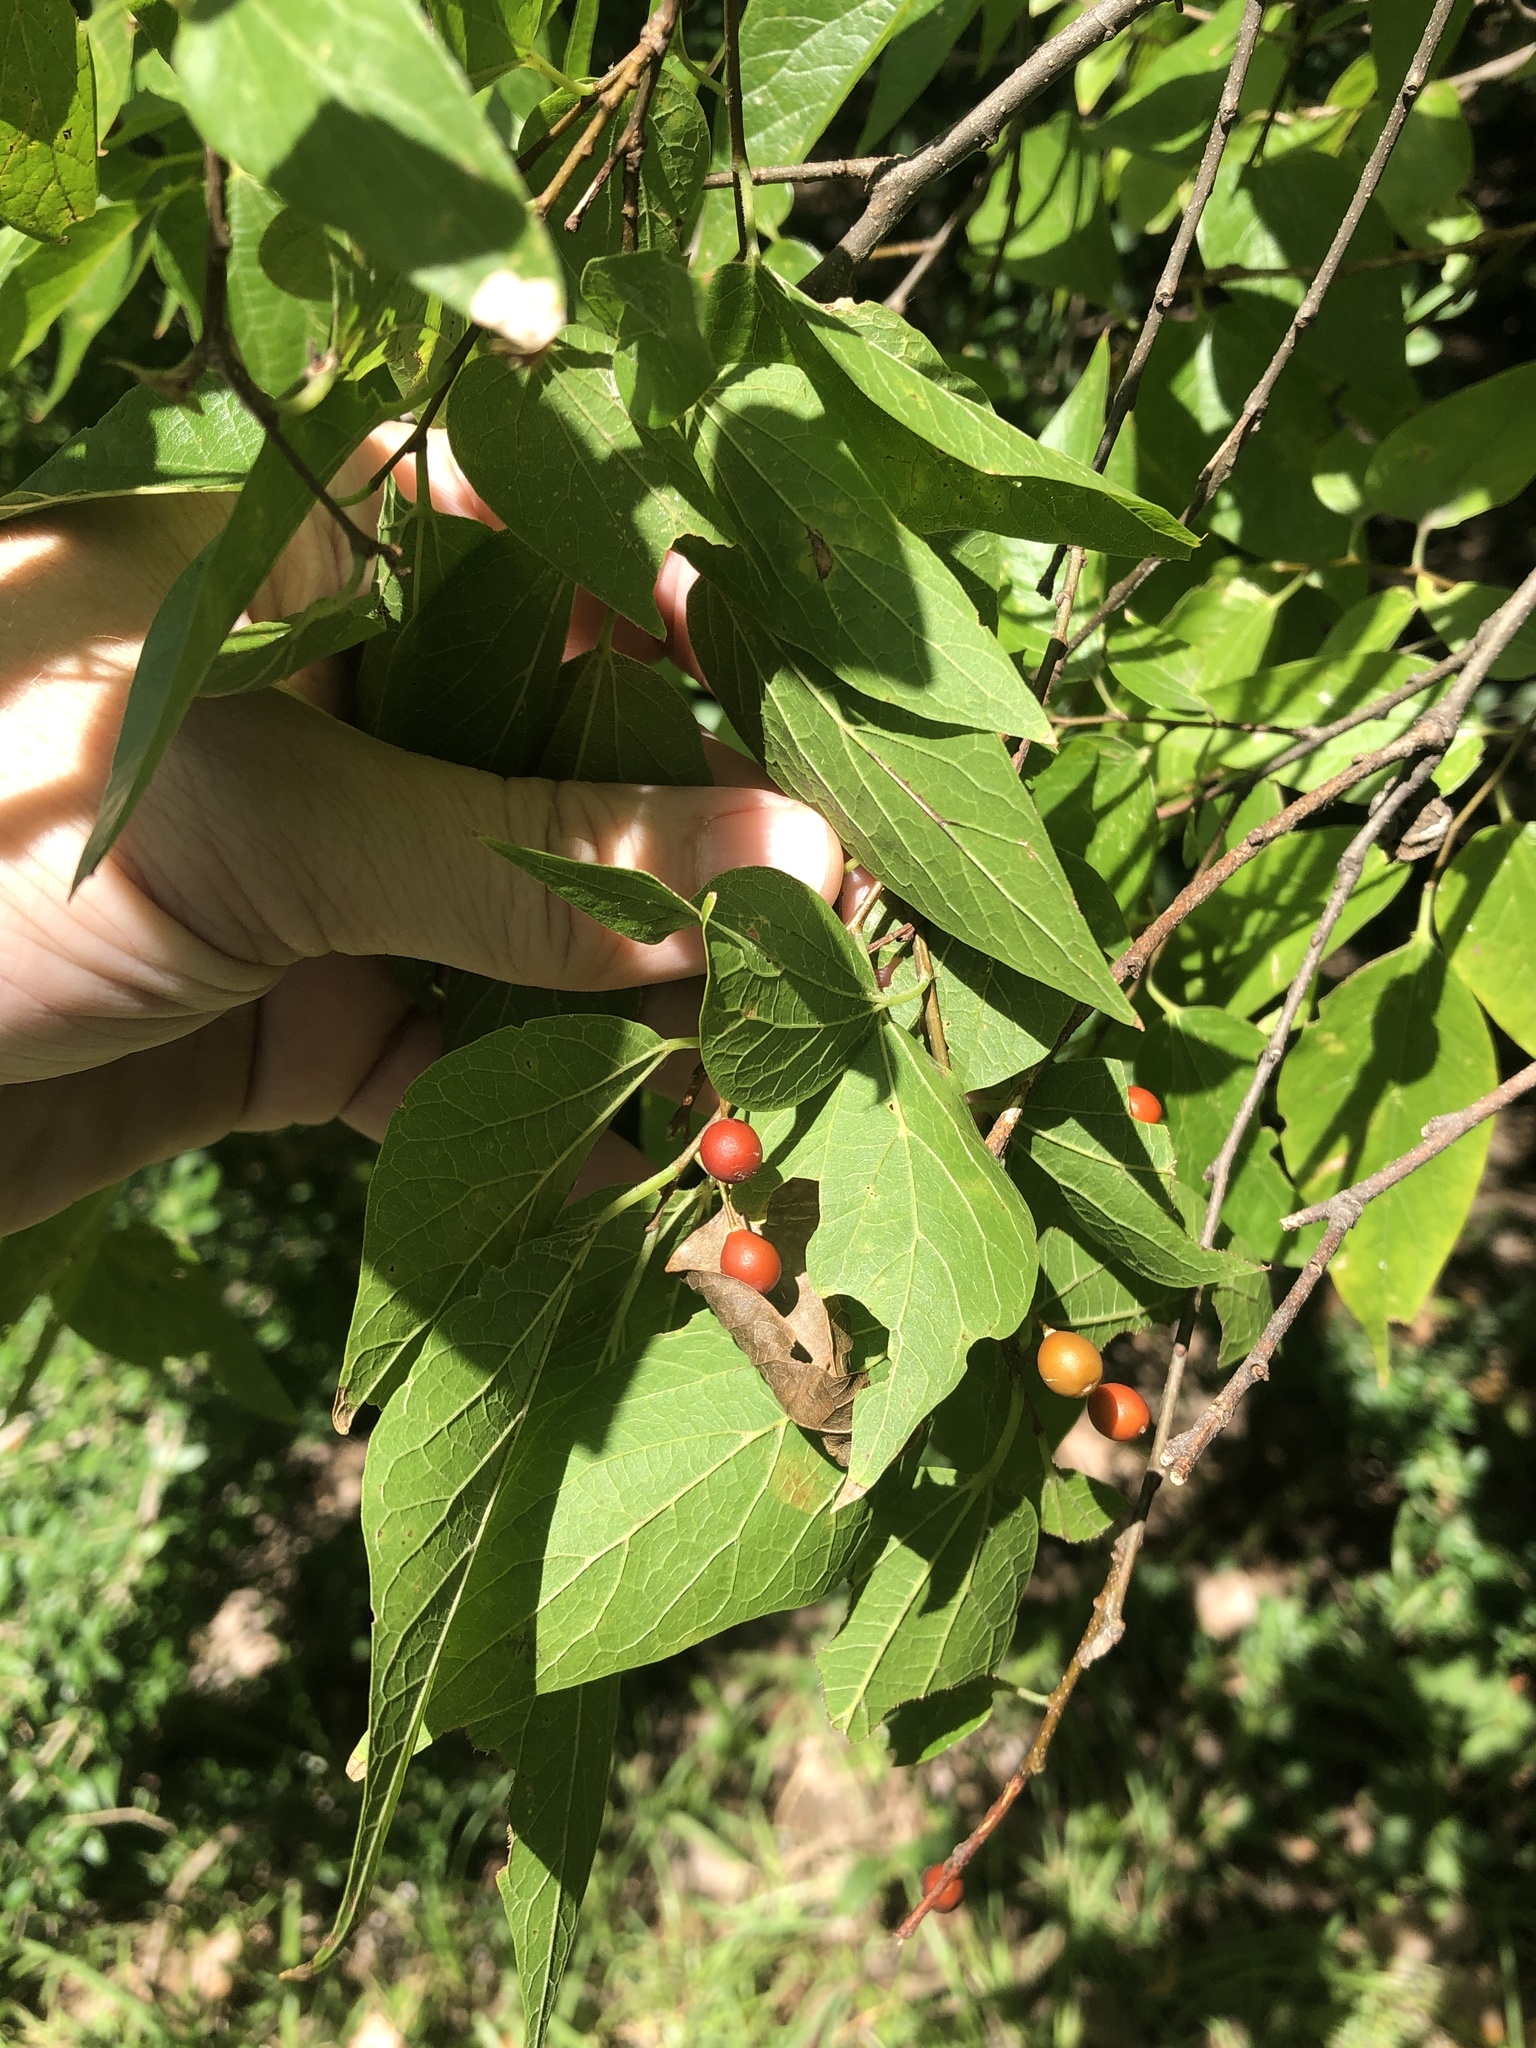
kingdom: Plantae
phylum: Tracheophyta
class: Magnoliopsida
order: Rosales
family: Cannabaceae
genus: Celtis
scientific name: Celtis laevigata
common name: Sugarberry
